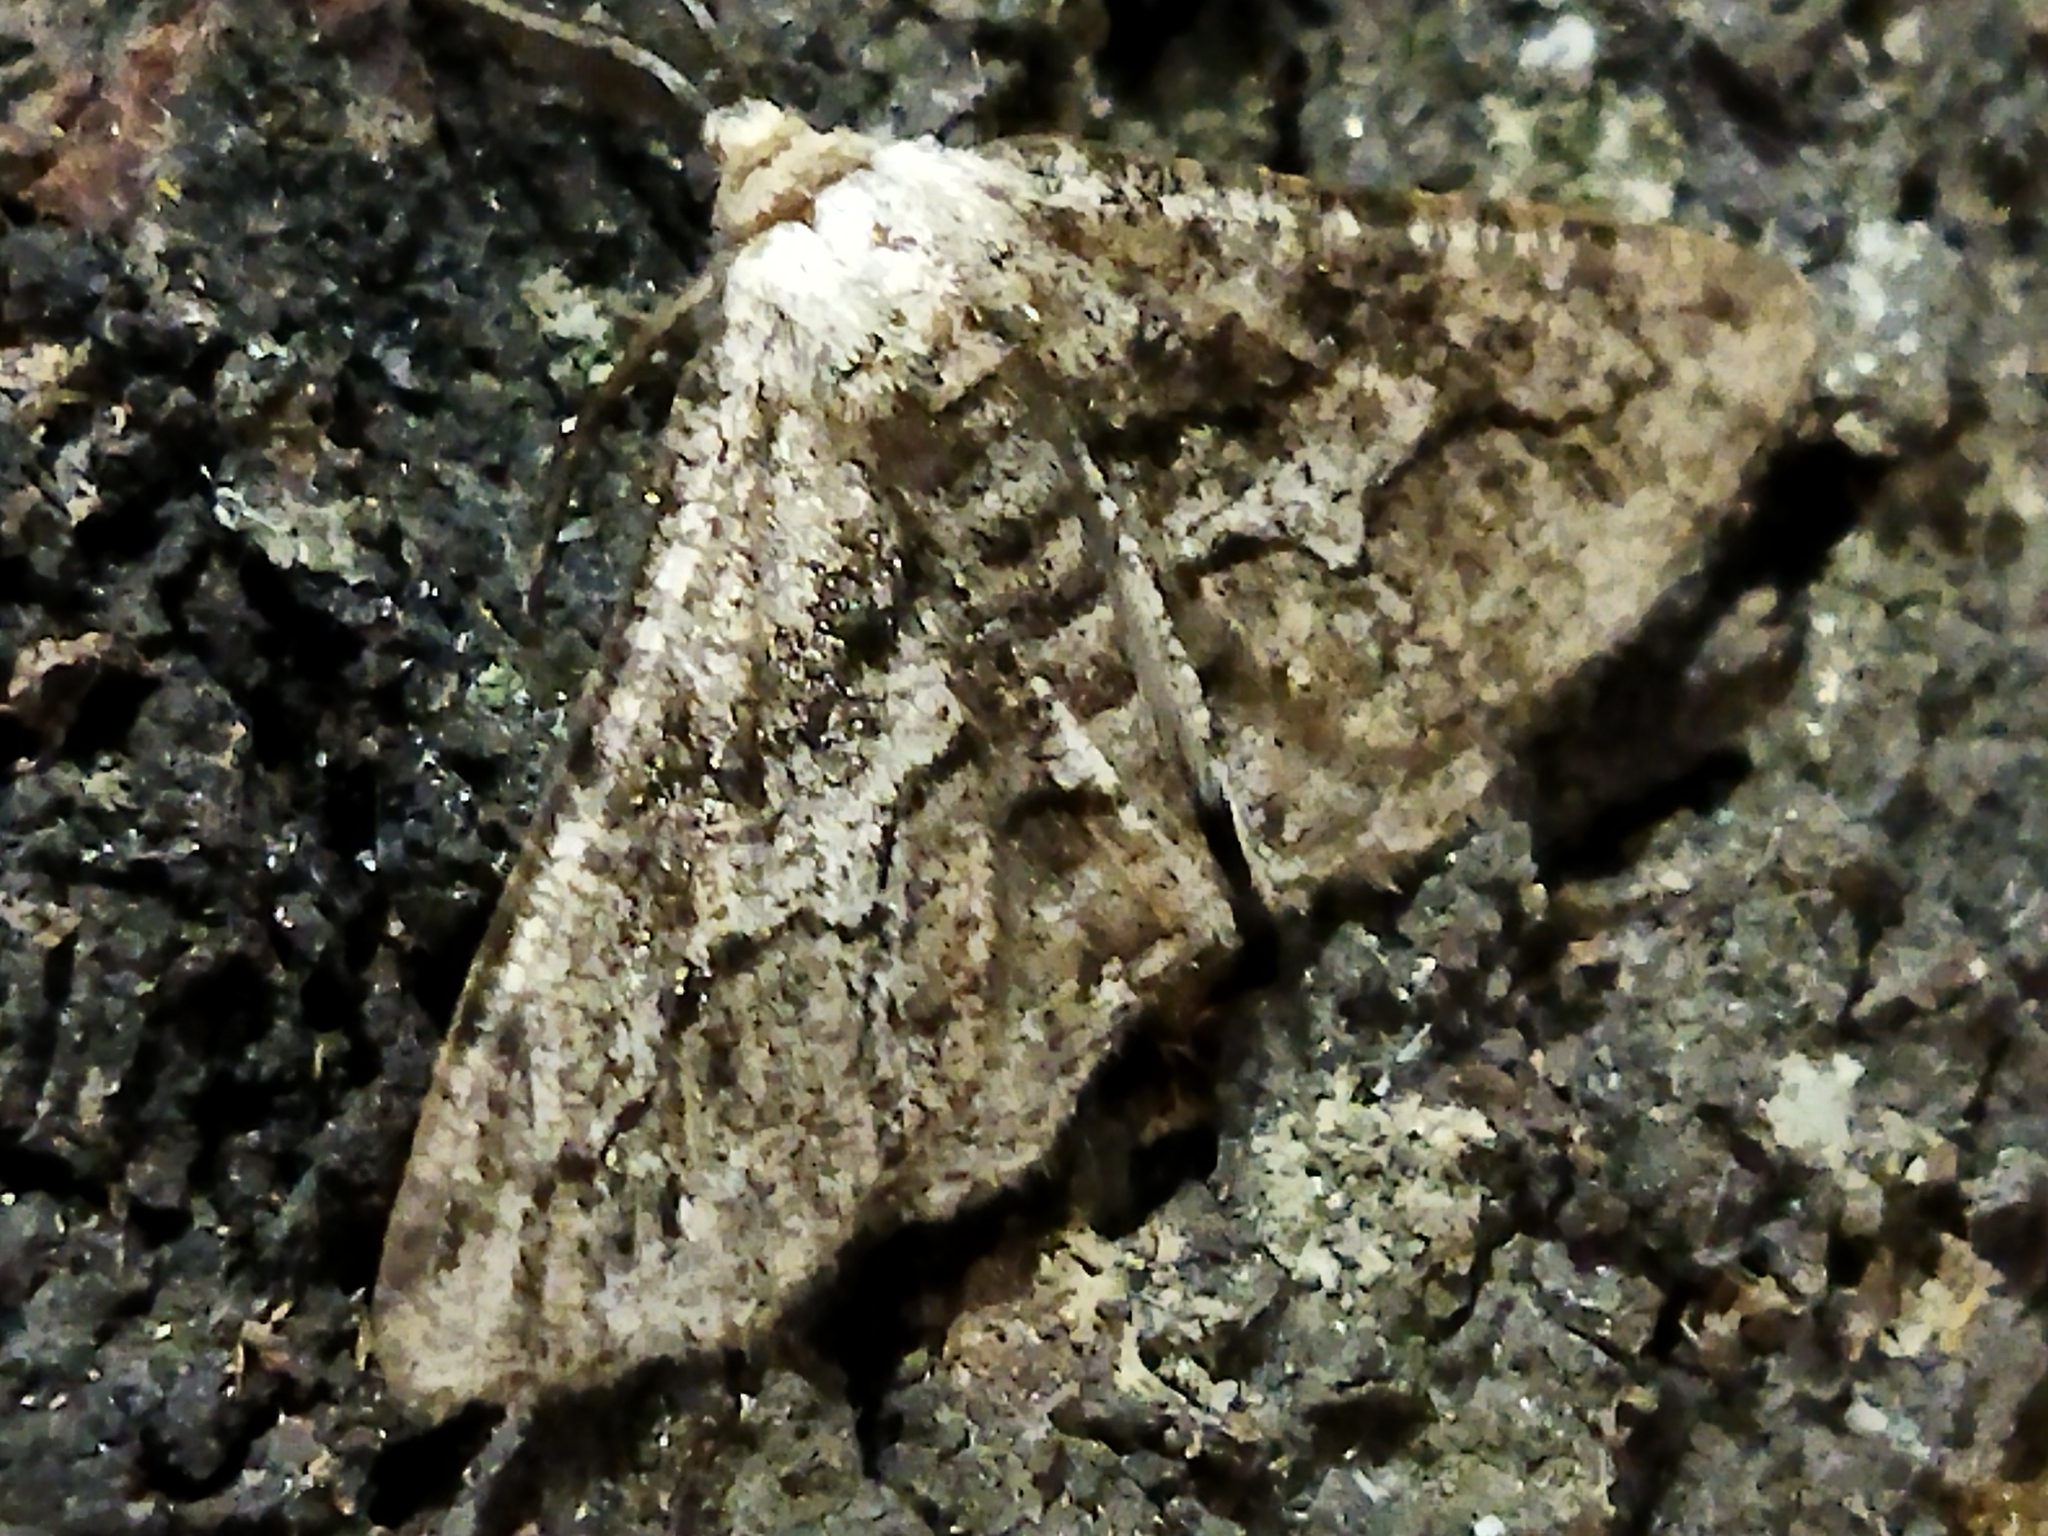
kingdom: Animalia
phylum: Arthropoda
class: Insecta
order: Lepidoptera
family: Geometridae
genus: Synopsia
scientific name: Synopsia sociaria
